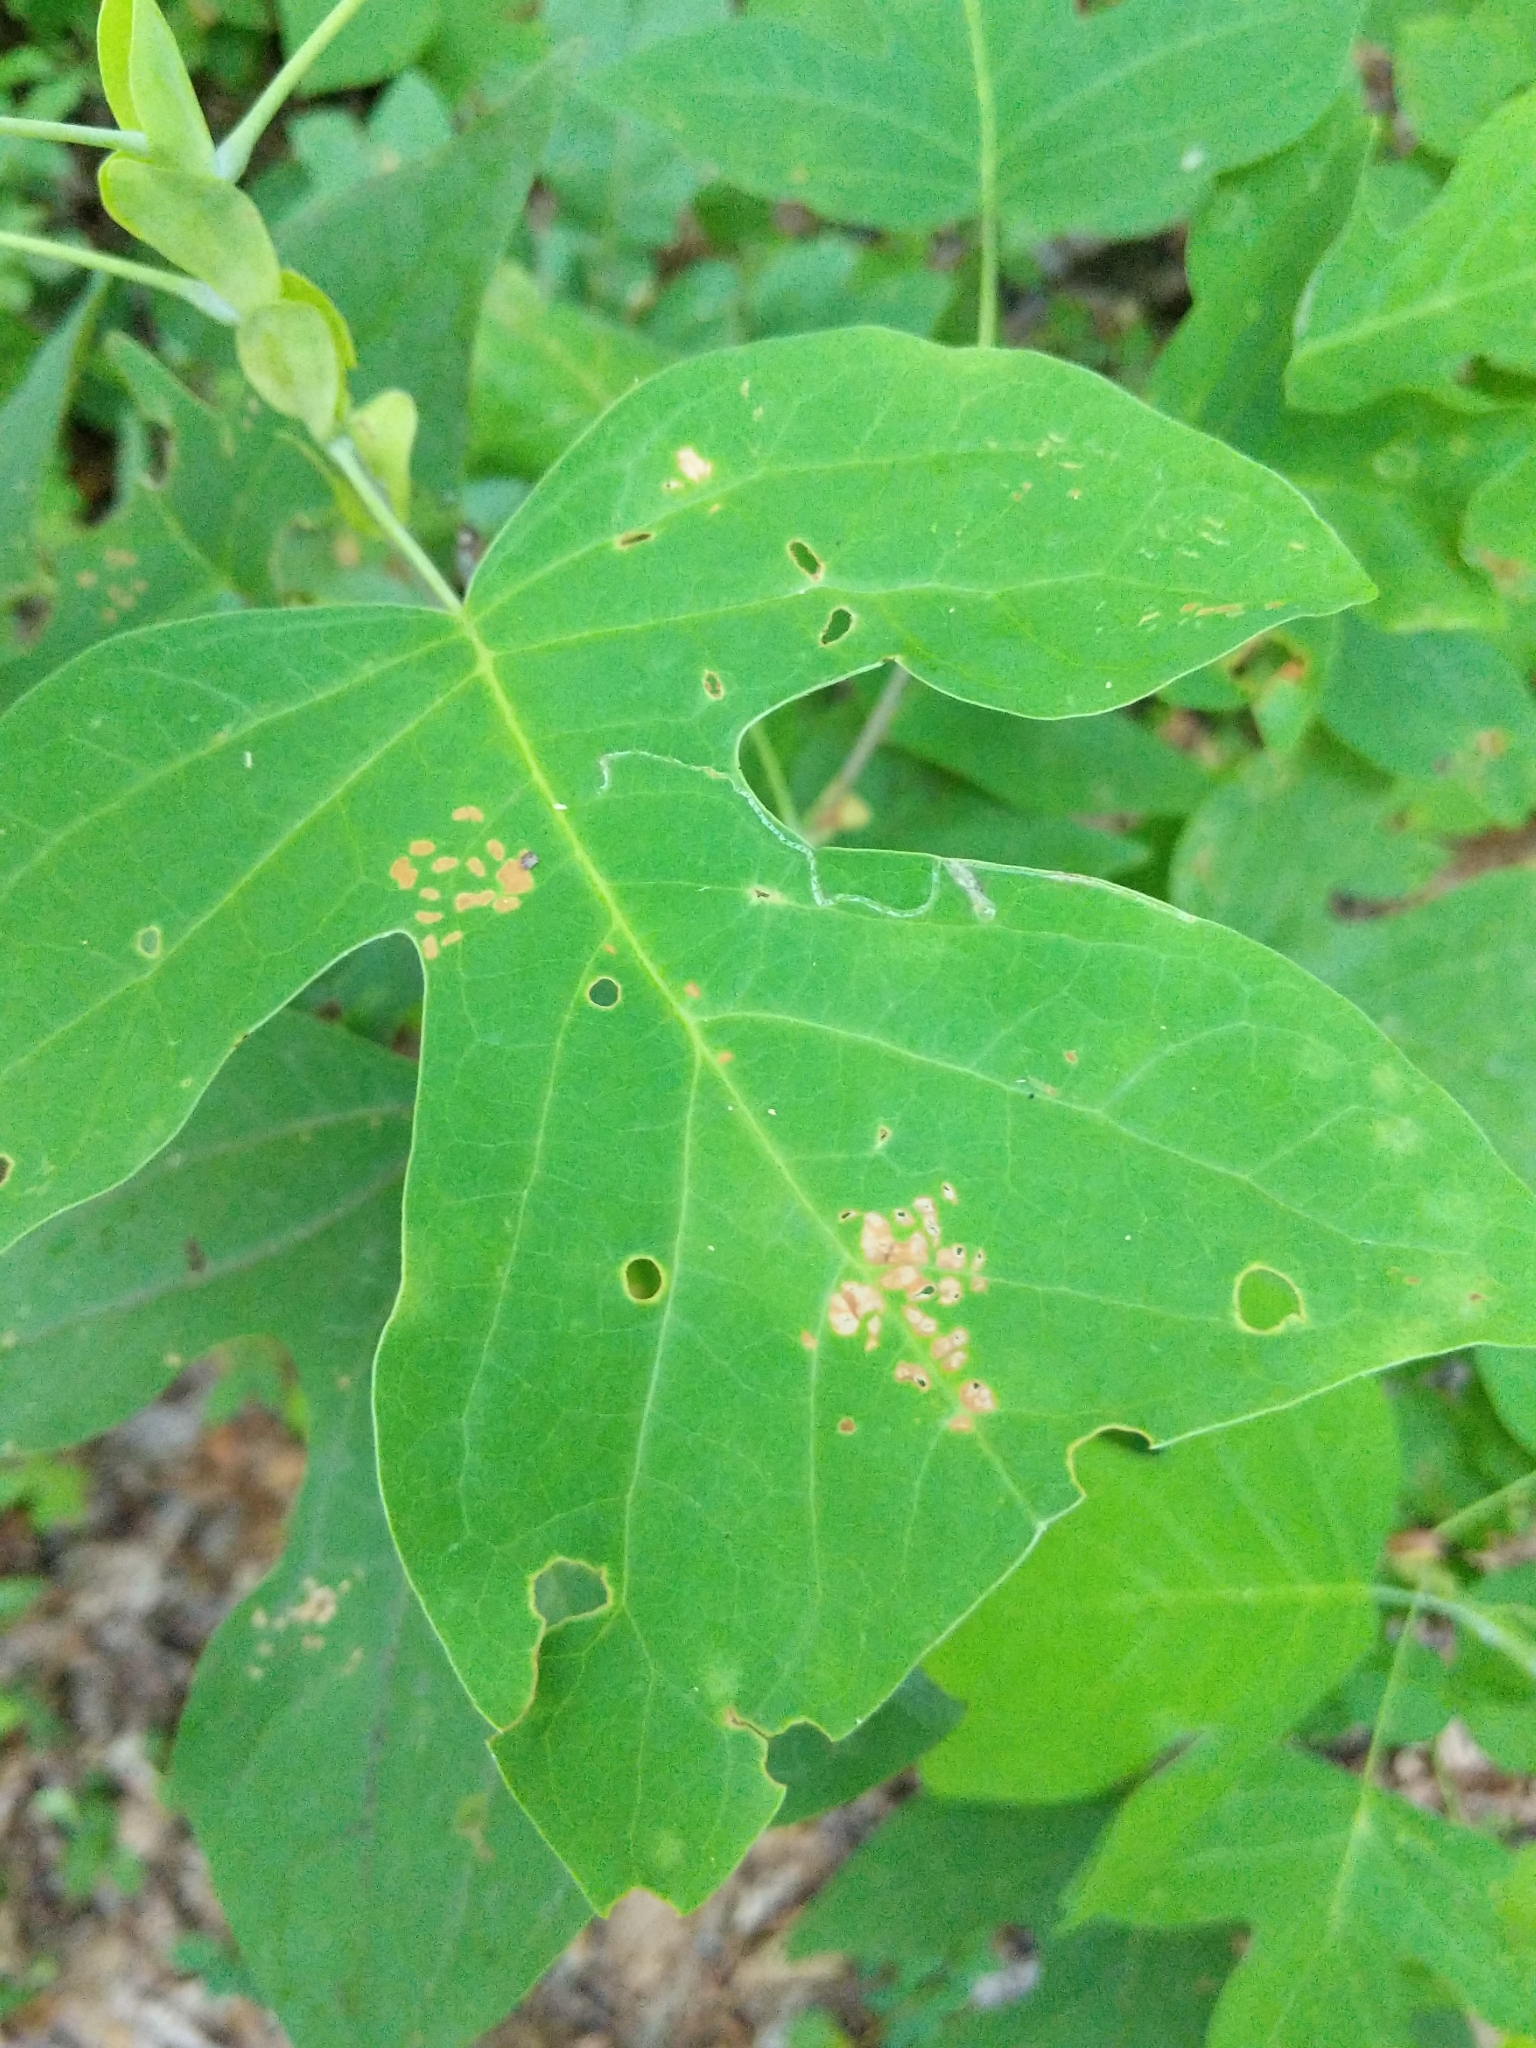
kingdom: Plantae
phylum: Tracheophyta
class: Magnoliopsida
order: Magnoliales
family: Magnoliaceae
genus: Liriodendron
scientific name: Liriodendron tulipifera
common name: Tulip tree
